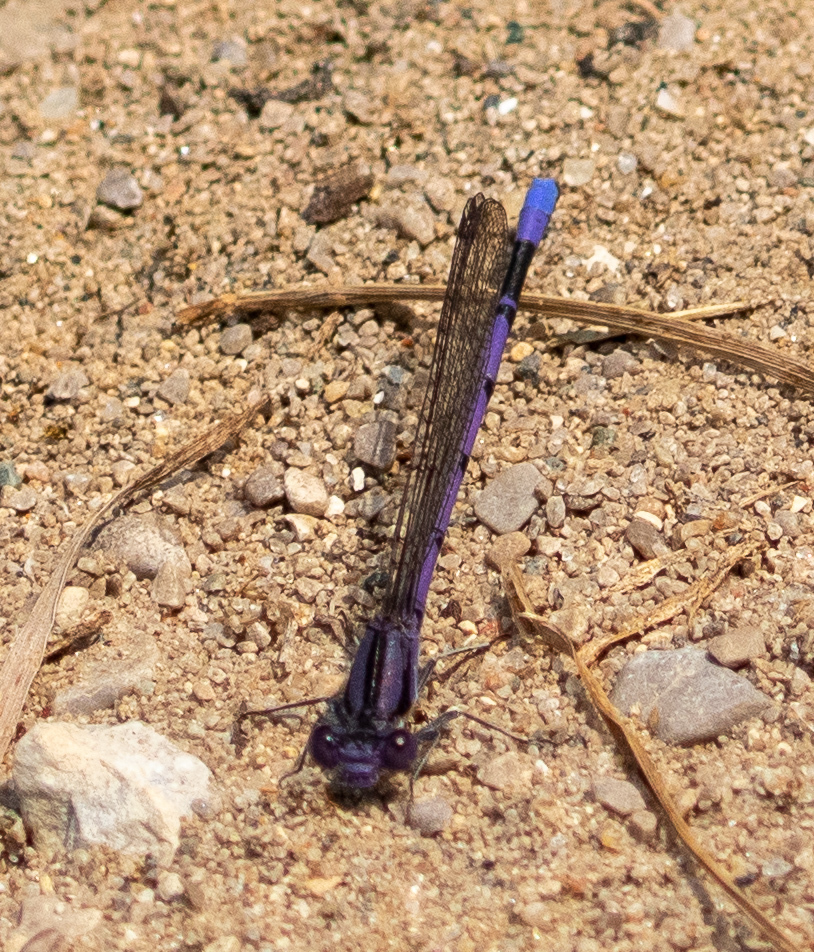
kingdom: Animalia
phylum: Arthropoda
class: Insecta
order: Odonata
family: Coenagrionidae
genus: Argia
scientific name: Argia fumipennis
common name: Variable dancer
